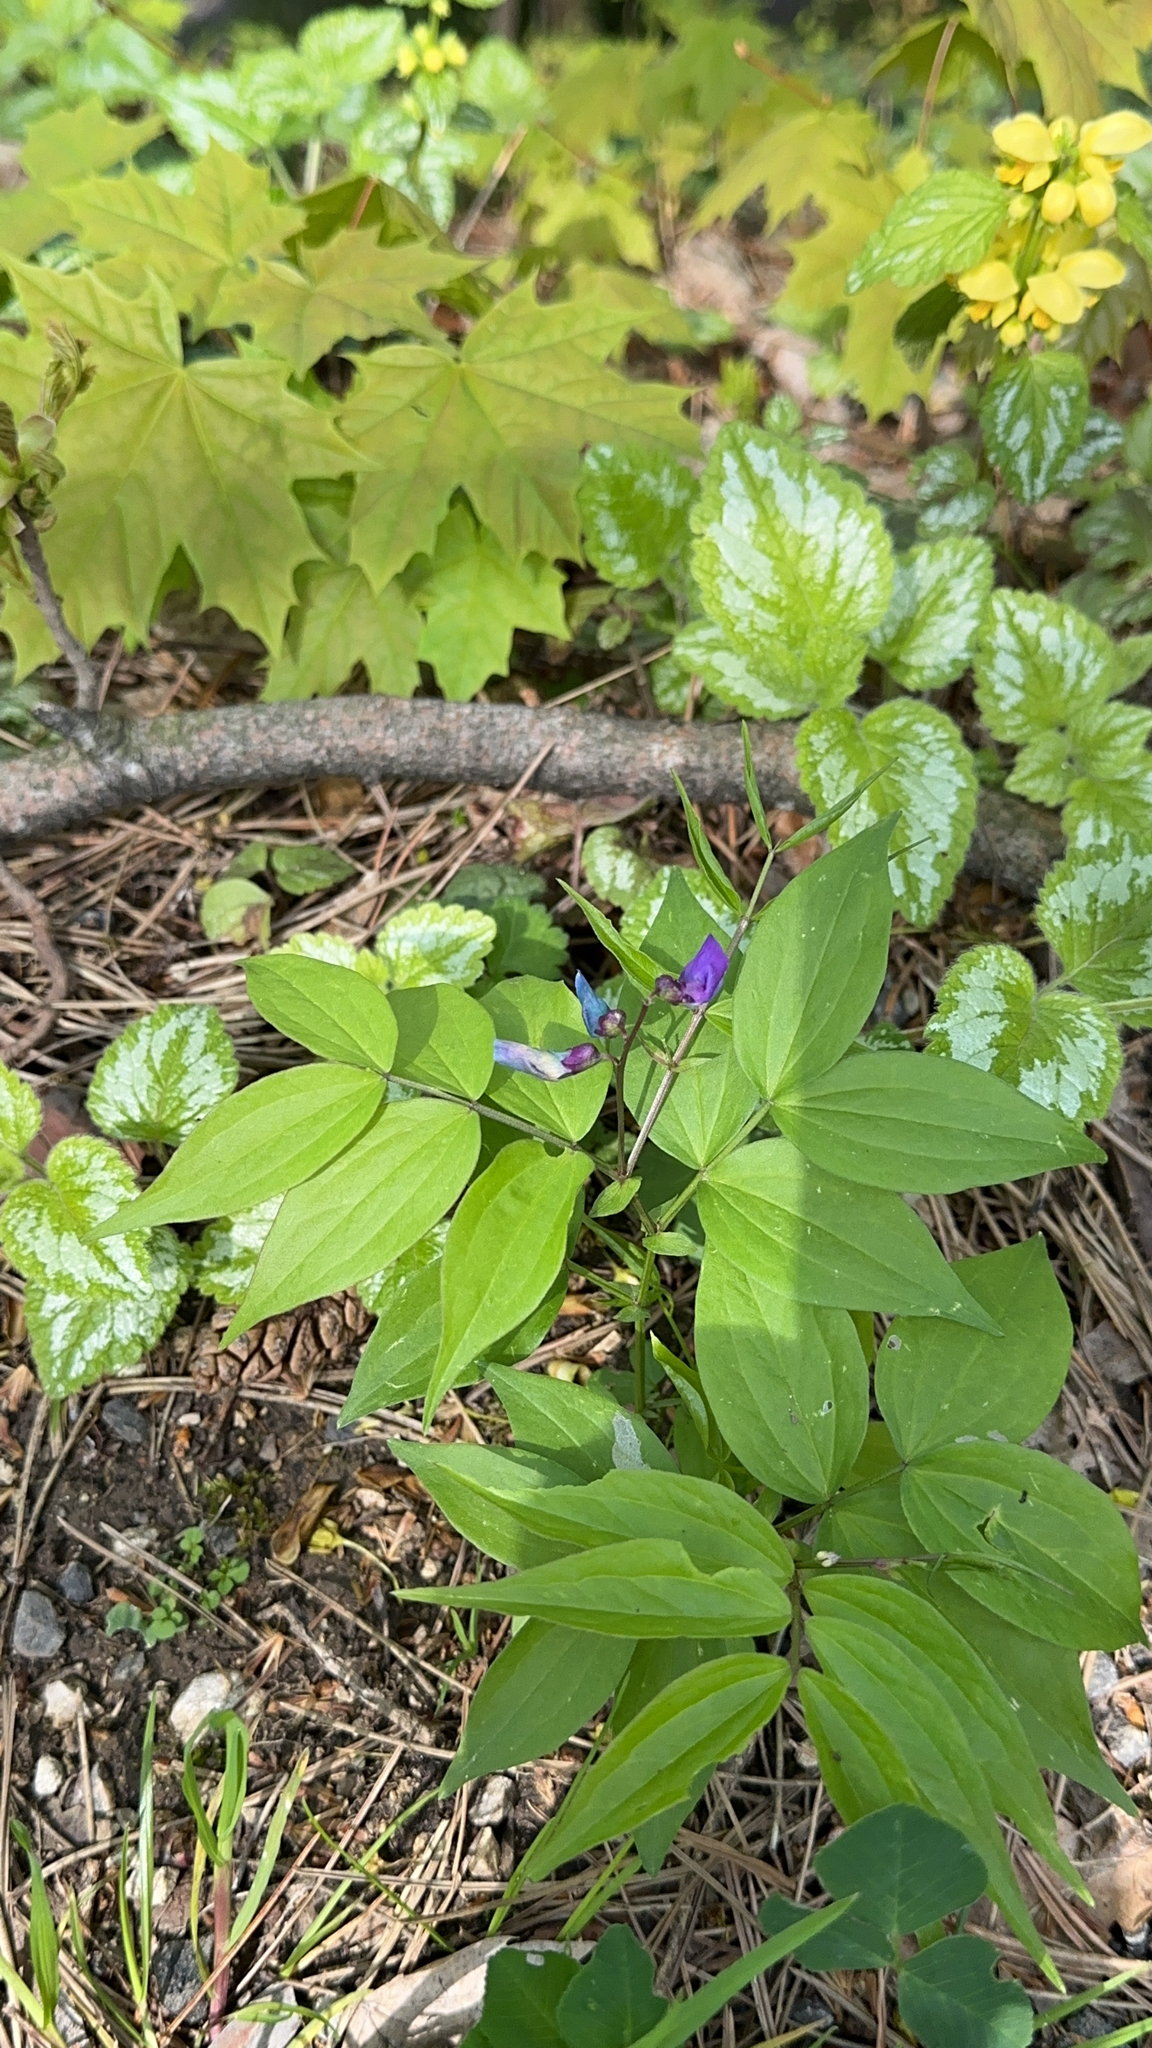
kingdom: Plantae
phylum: Tracheophyta
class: Magnoliopsida
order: Fabales
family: Fabaceae
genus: Lathyrus
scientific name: Lathyrus vernus
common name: Spring pea
